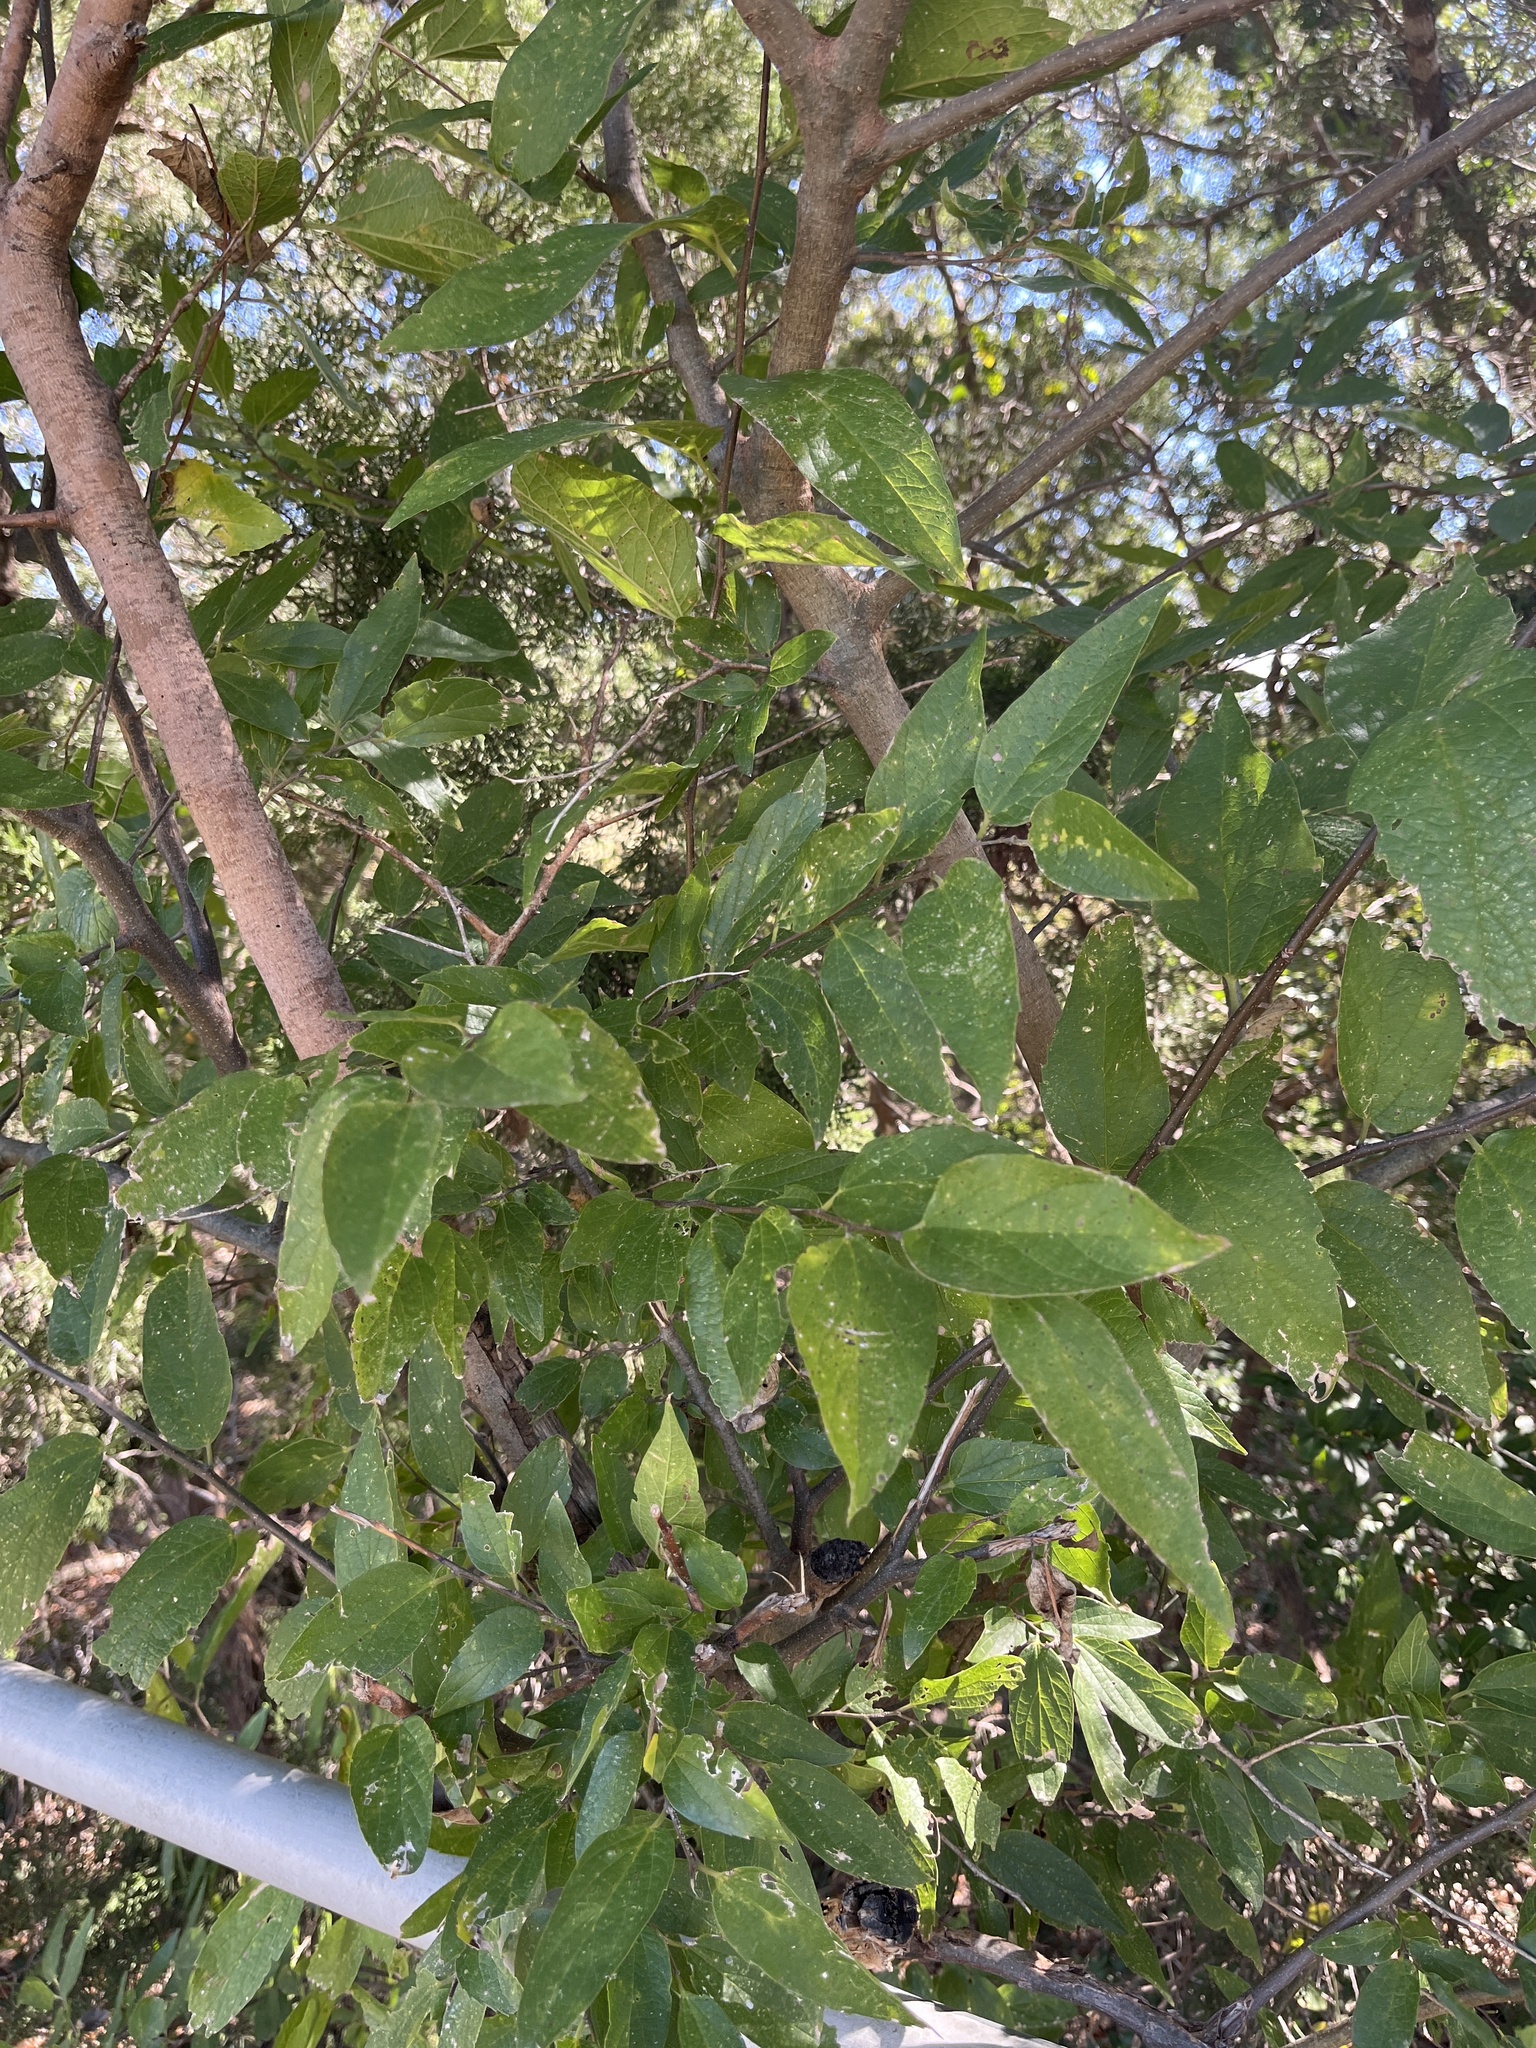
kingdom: Plantae
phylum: Tracheophyta
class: Magnoliopsida
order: Rosales
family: Cannabaceae
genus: Celtis
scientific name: Celtis laevigata
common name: Sugarberry
